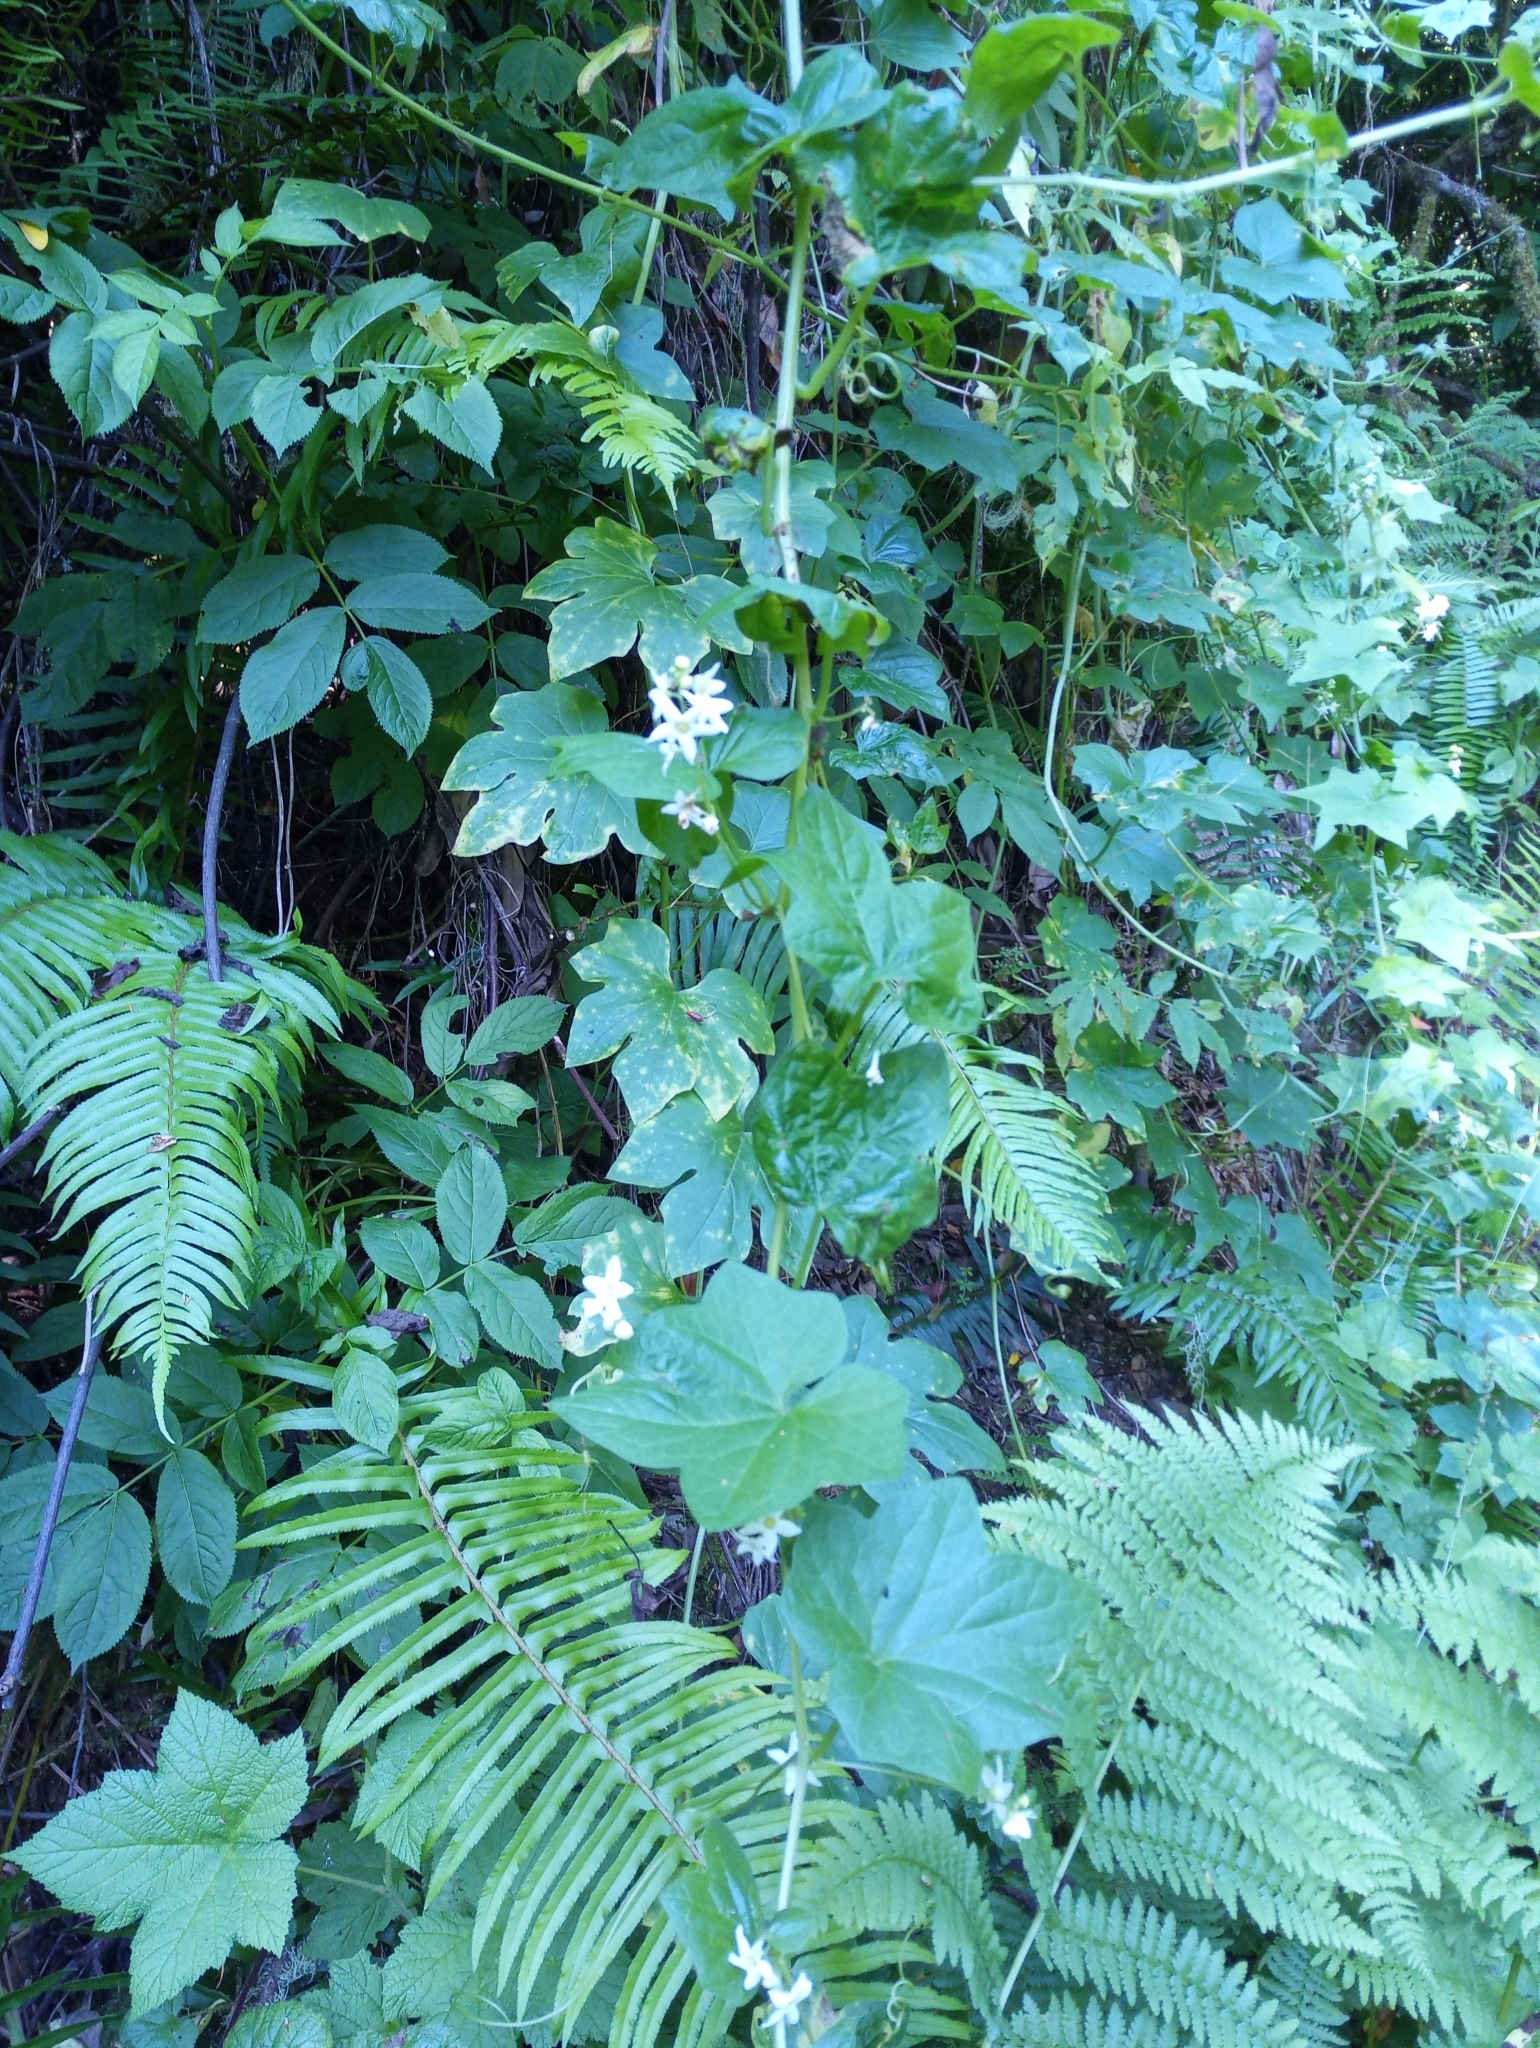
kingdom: Plantae
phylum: Tracheophyta
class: Magnoliopsida
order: Cucurbitales
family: Cucurbitaceae
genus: Marah
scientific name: Marah oregana
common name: Coastal manroot
